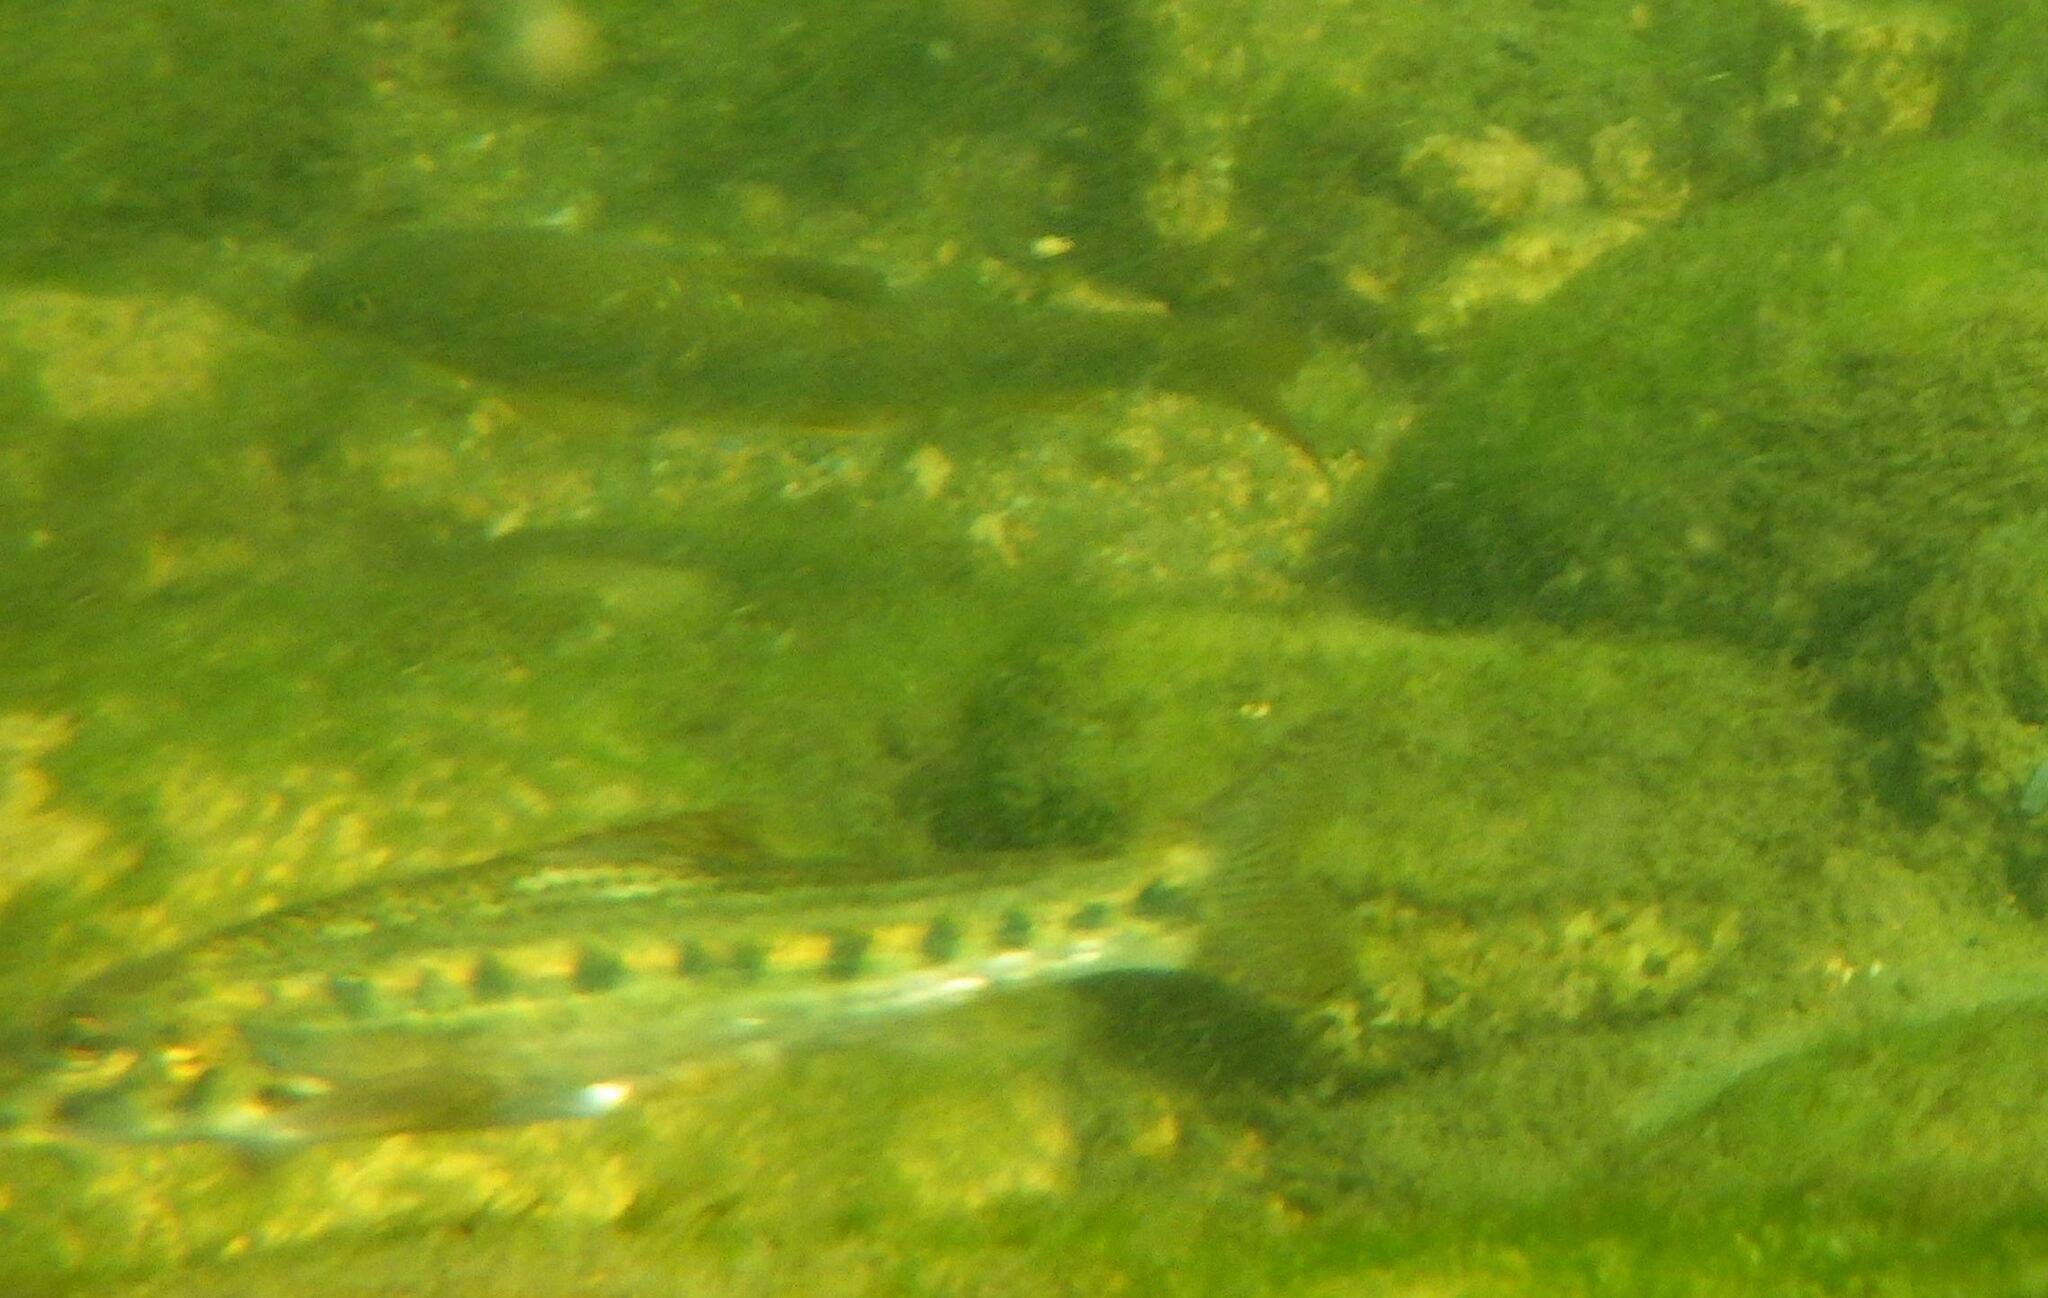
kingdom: Animalia
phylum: Chordata
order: Cypriniformes
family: Cyprinidae
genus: Gobio
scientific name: Gobio occitaniae
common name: Languedoc gudgeon
